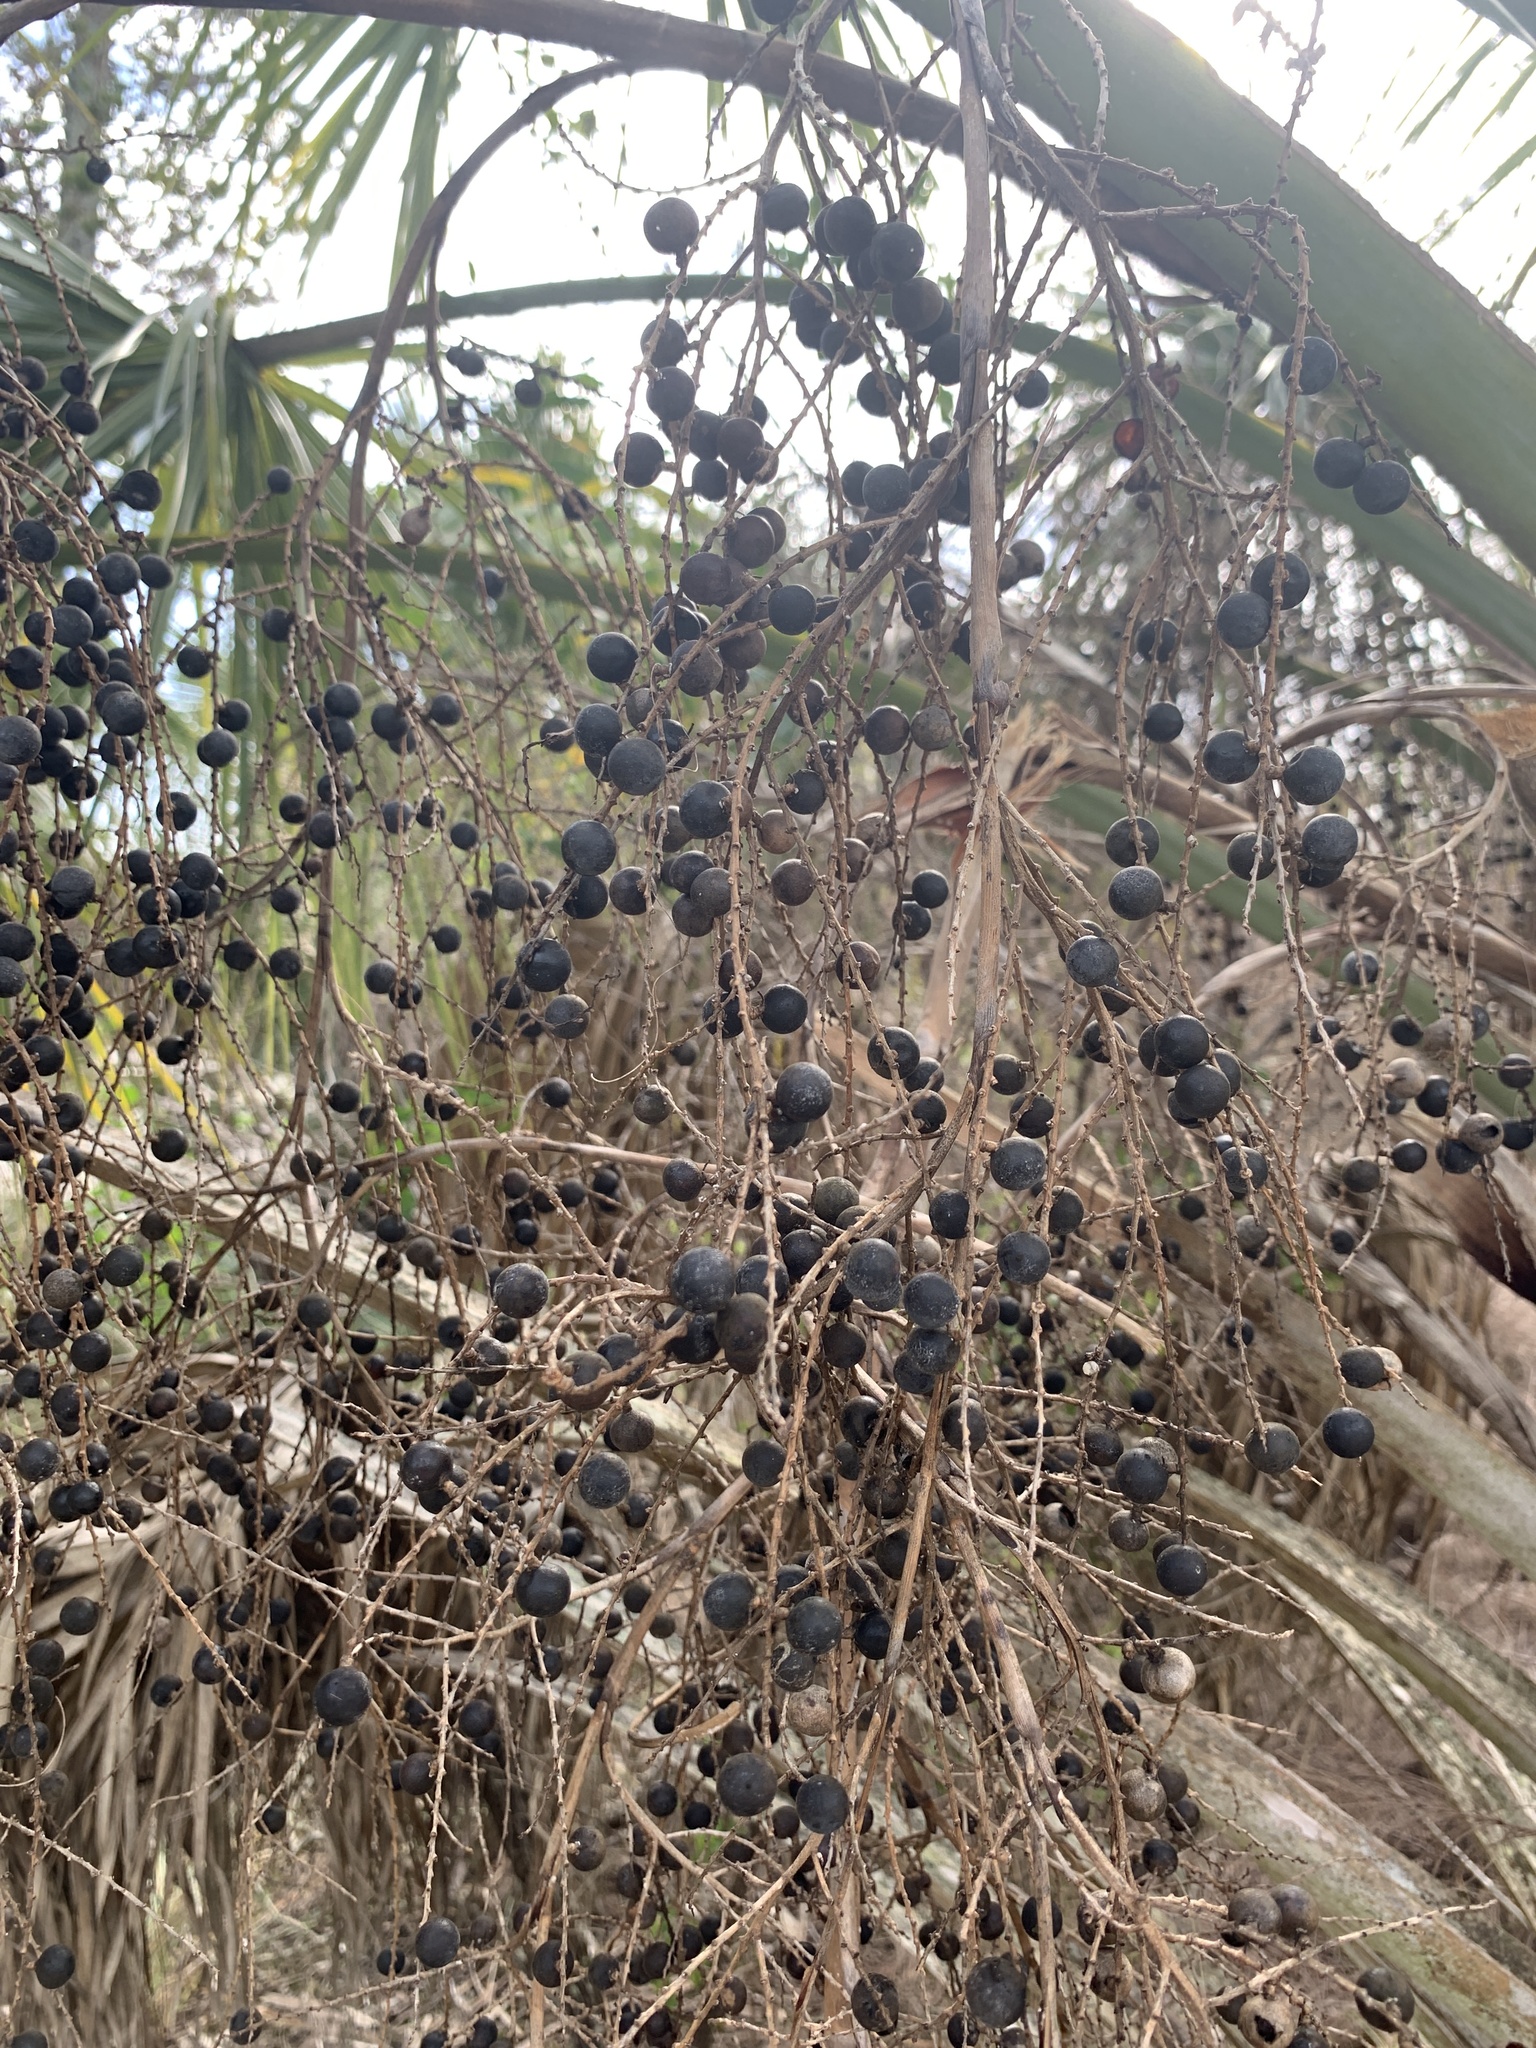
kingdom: Plantae
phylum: Tracheophyta
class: Liliopsida
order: Arecales
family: Arecaceae
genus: Sabal
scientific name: Sabal palmetto
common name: Blue palmetto
